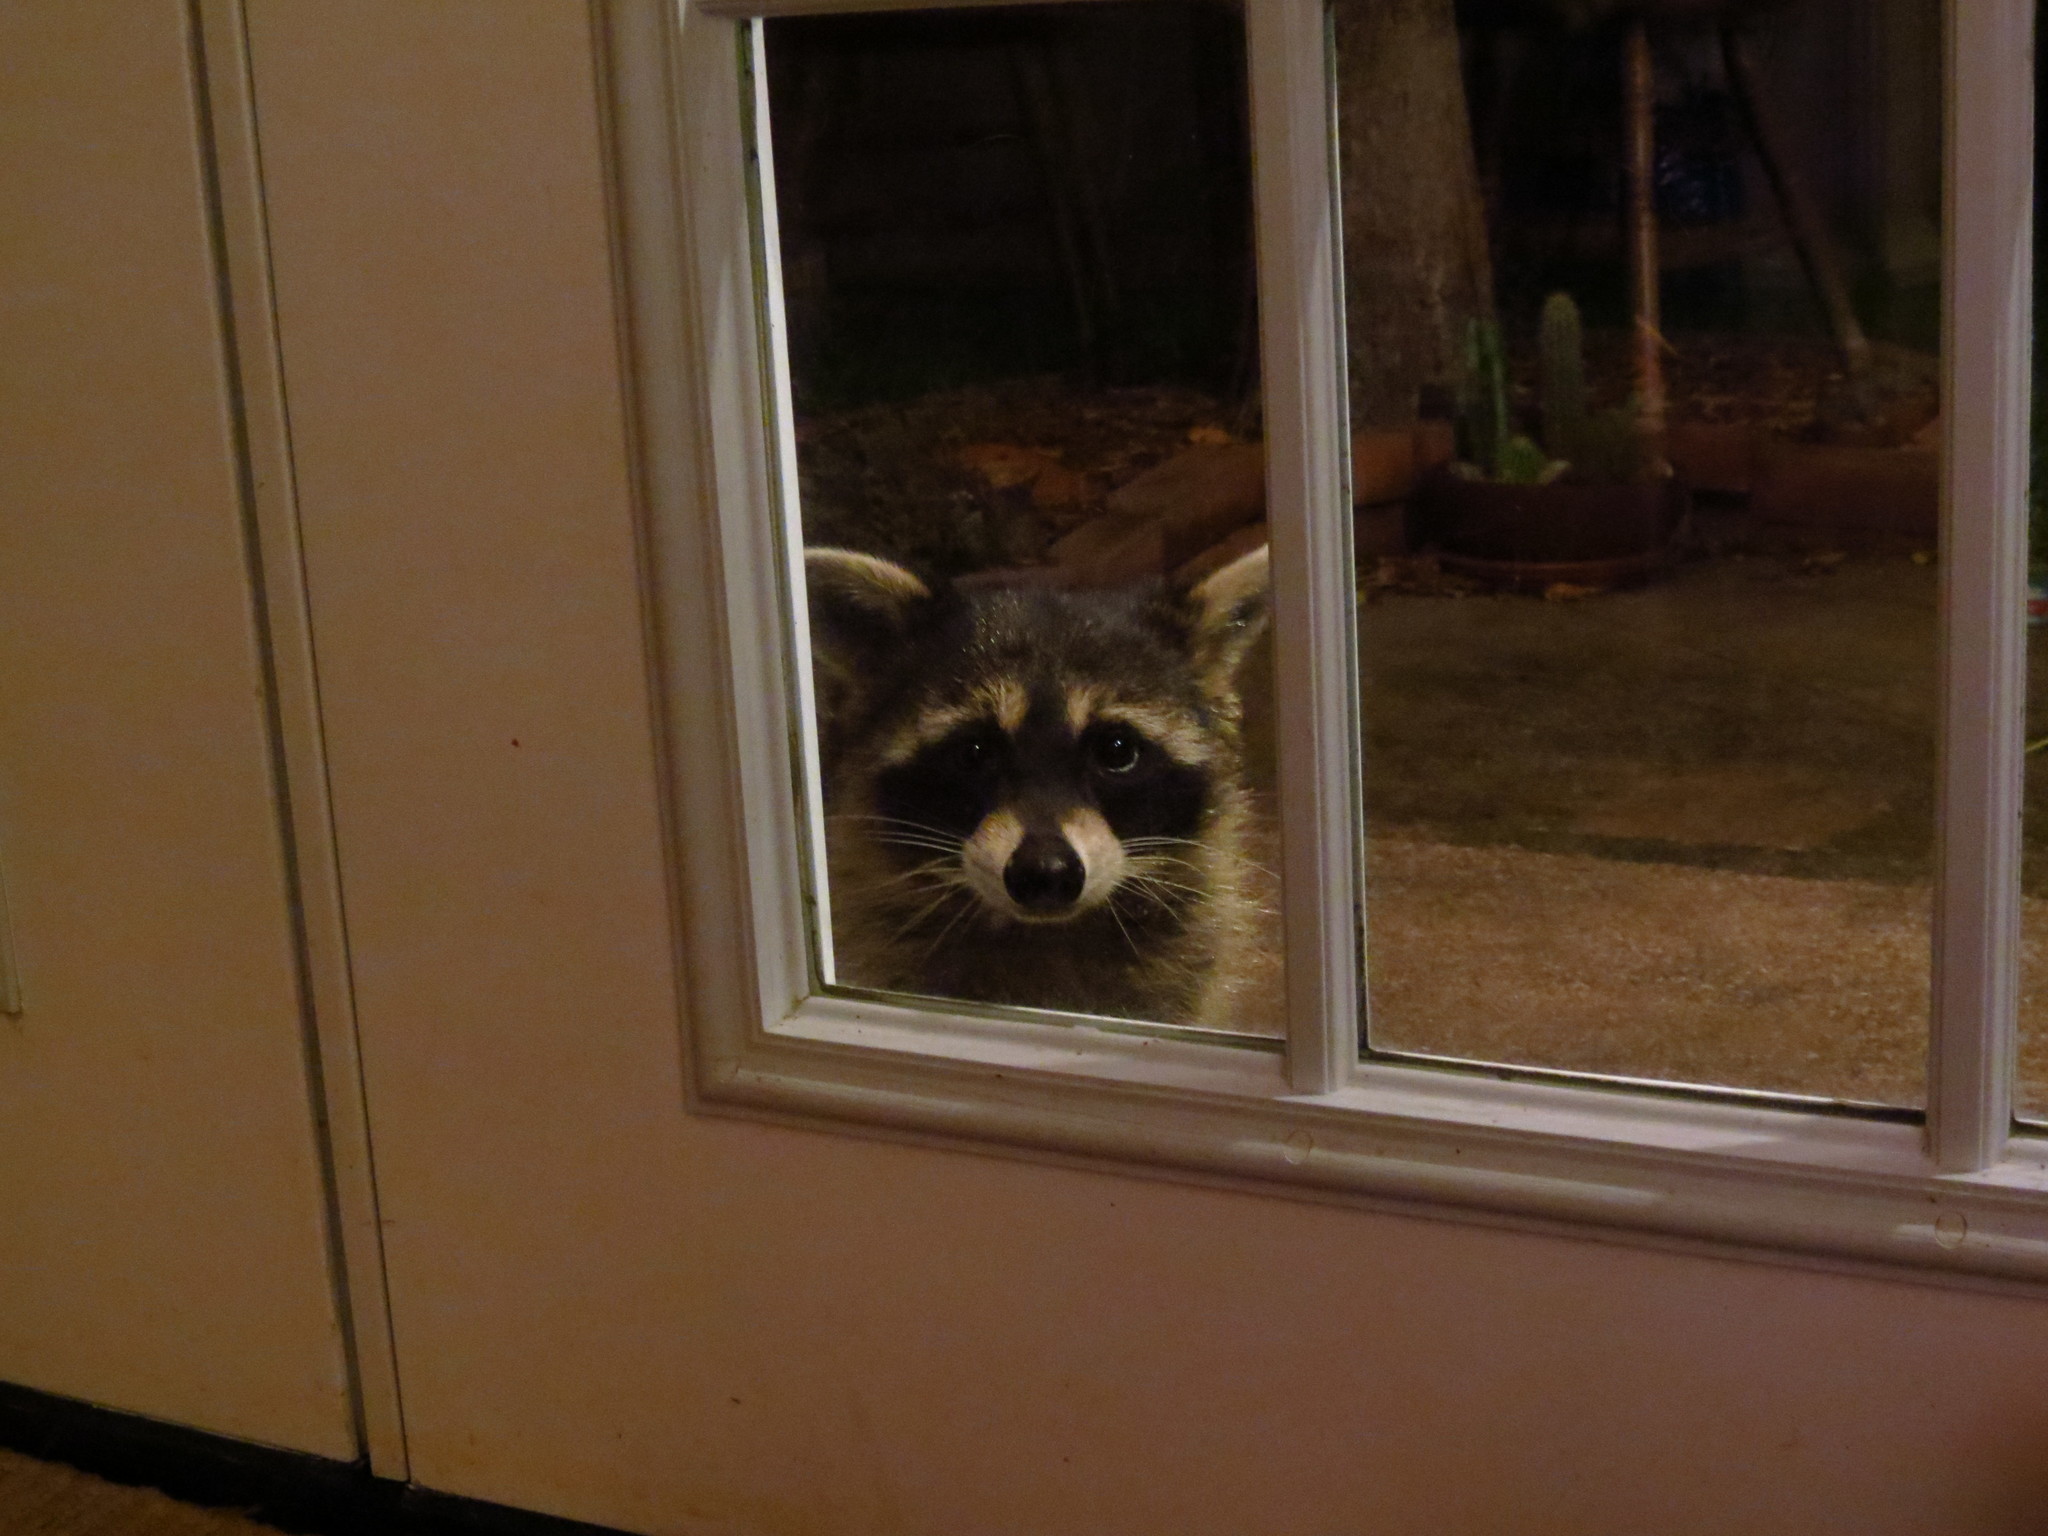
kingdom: Animalia
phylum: Chordata
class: Mammalia
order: Carnivora
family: Procyonidae
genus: Procyon
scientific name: Procyon lotor
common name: Raccoon
